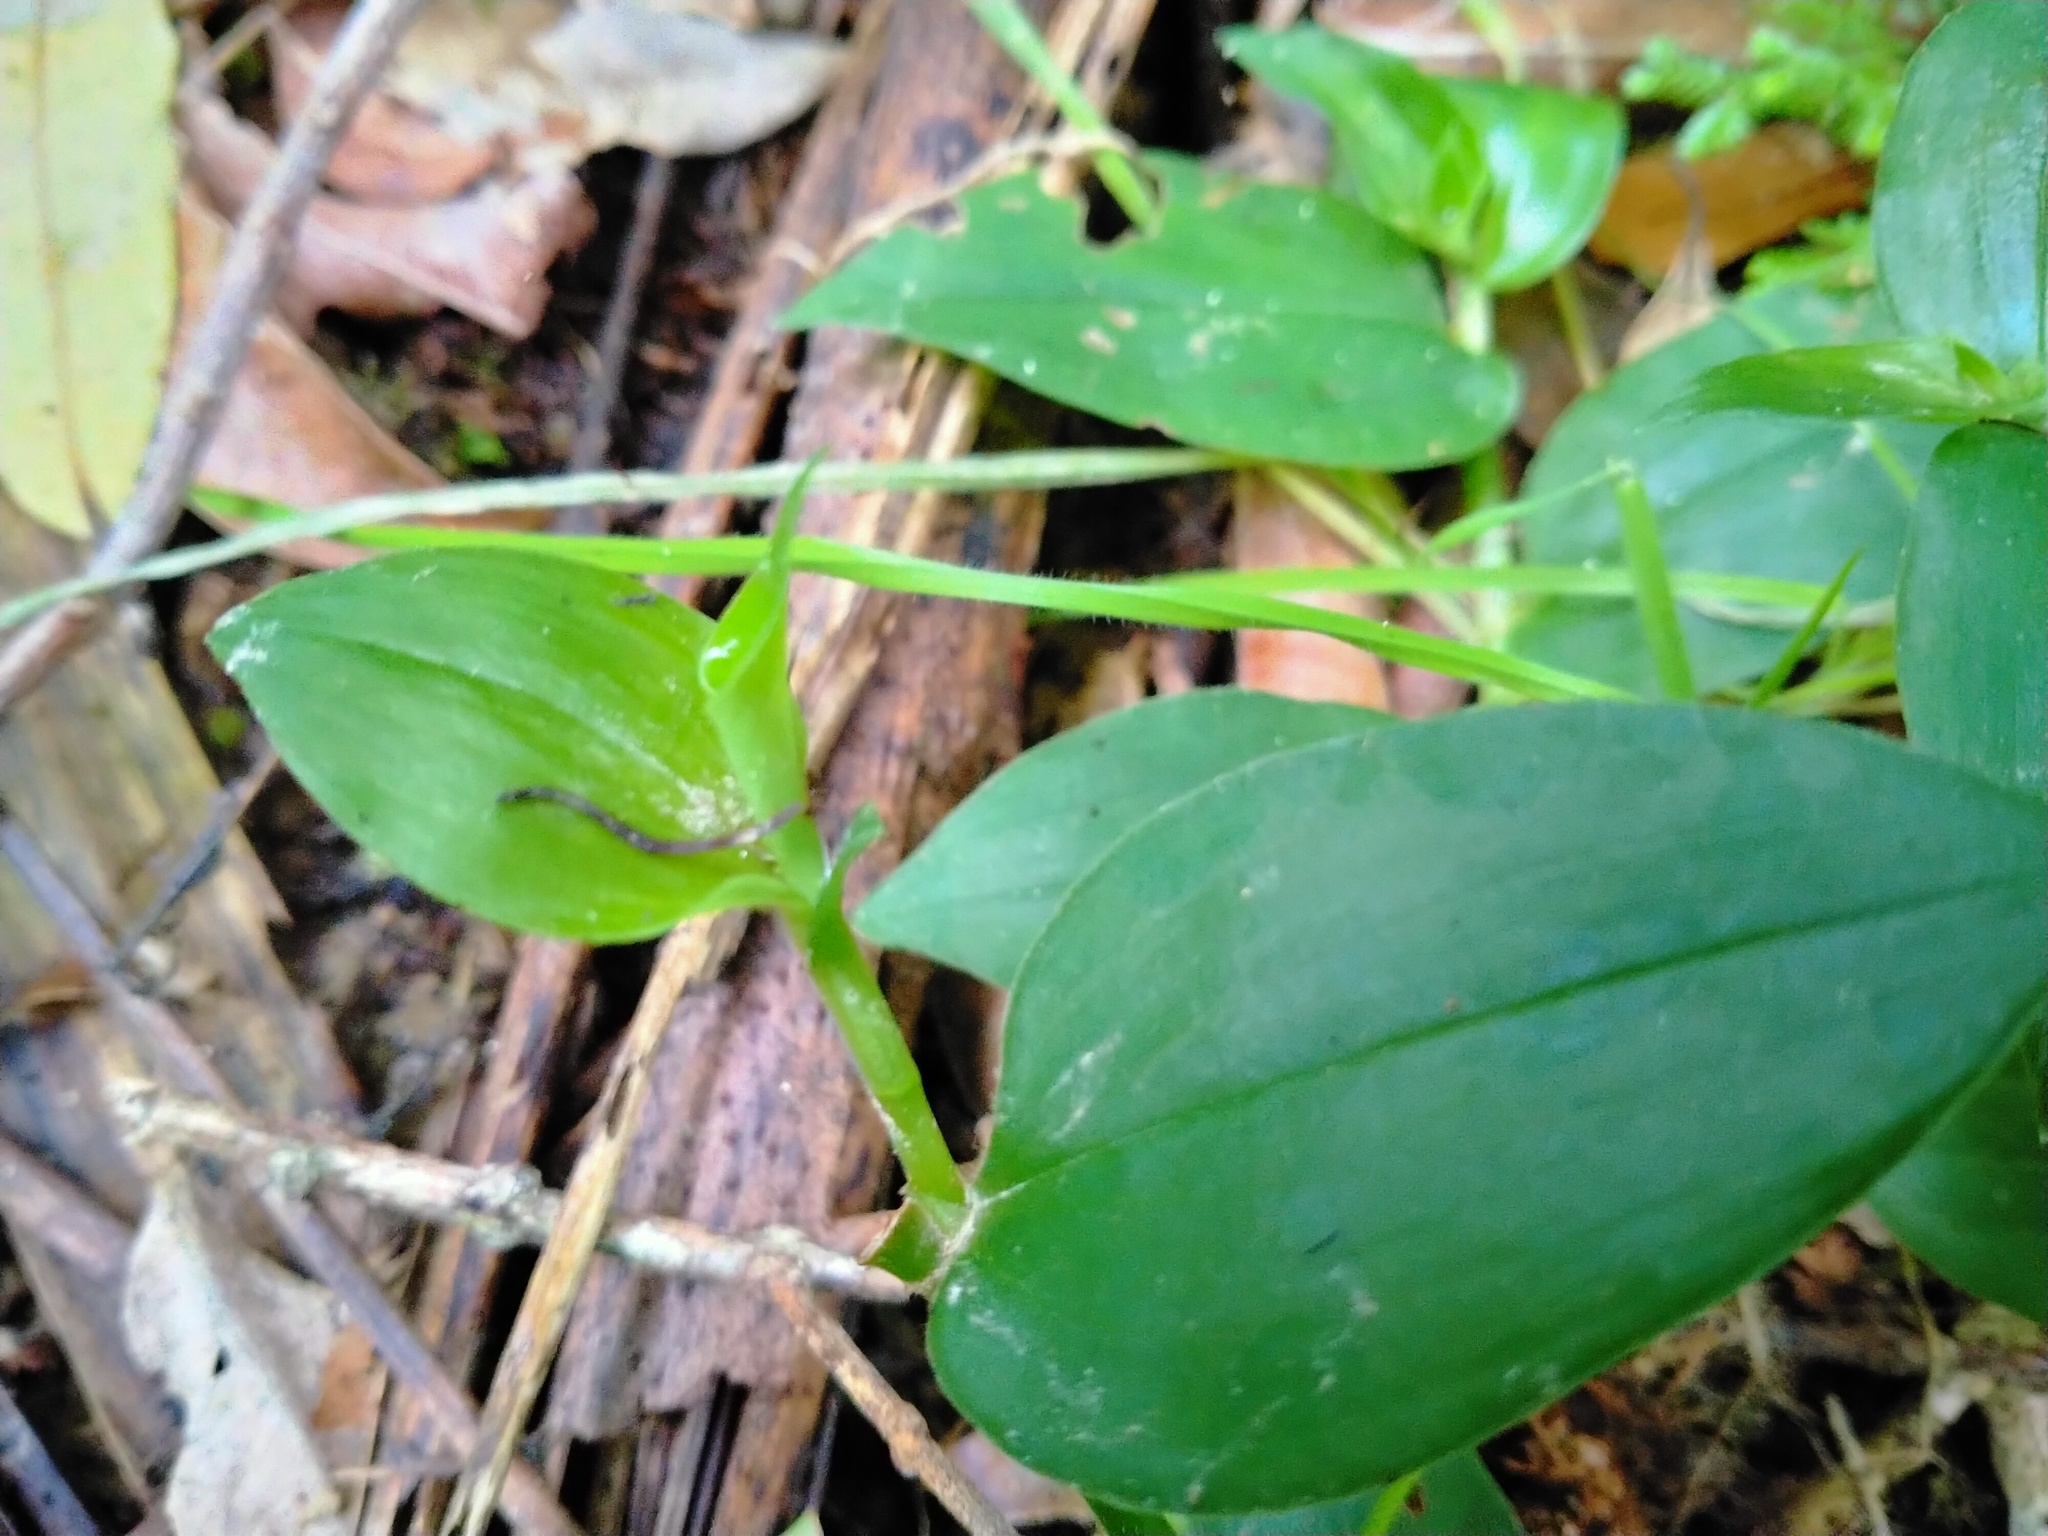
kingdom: Plantae
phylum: Tracheophyta
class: Liliopsida
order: Commelinales
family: Commelinaceae
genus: Tradescantia
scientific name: Tradescantia fluminensis
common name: Wandering-jew
